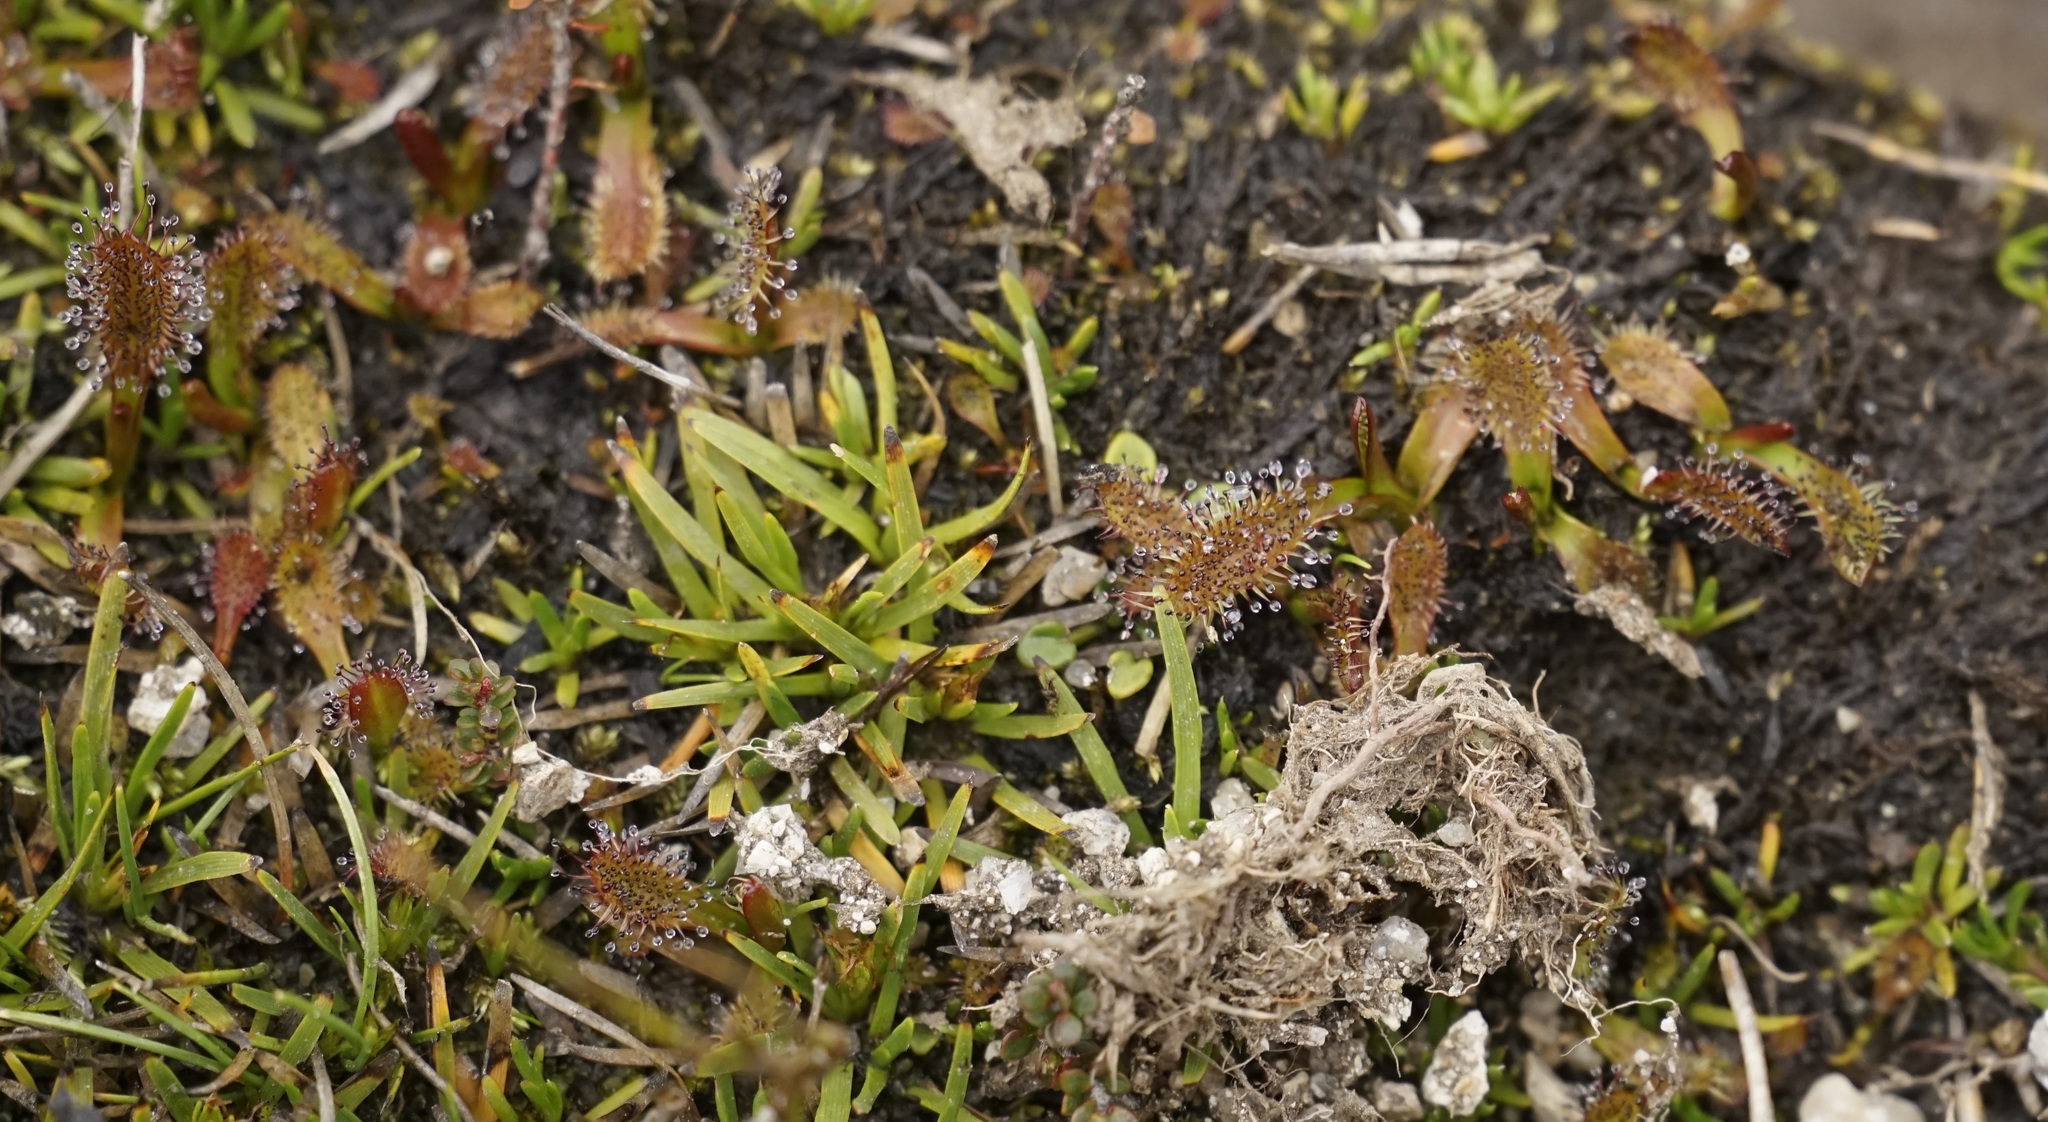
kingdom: Plantae
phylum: Tracheophyta
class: Magnoliopsida
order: Caryophyllales
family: Droseraceae
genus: Drosera
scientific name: Drosera arcturi
